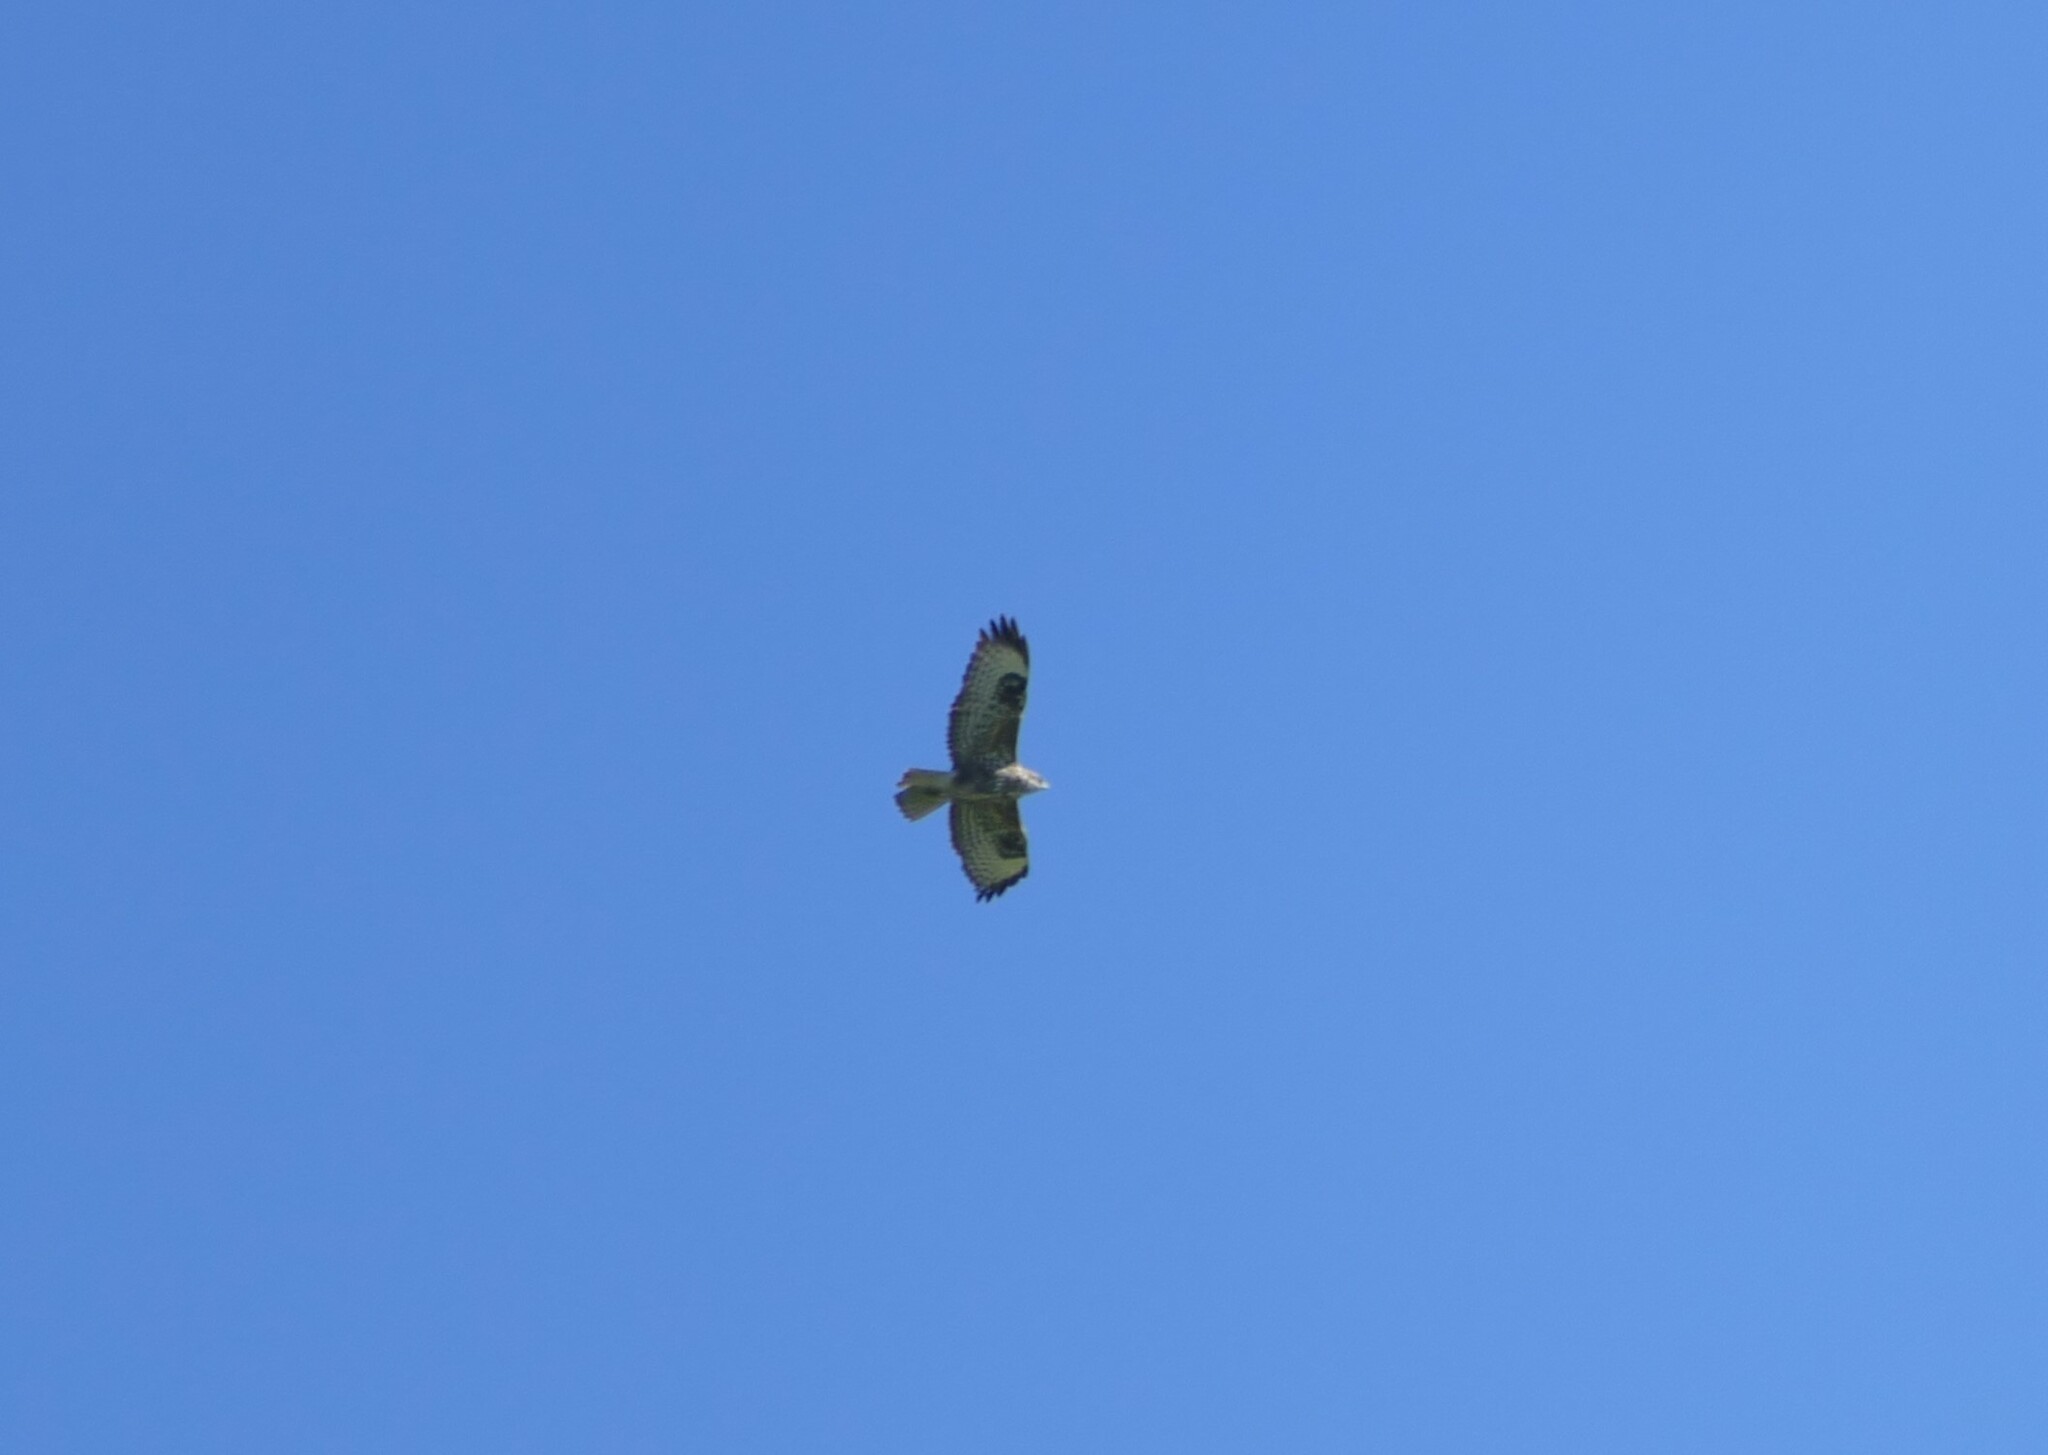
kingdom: Animalia
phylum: Chordata
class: Aves
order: Accipitriformes
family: Accipitridae
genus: Buteo
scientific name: Buteo buteo
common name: Common buzzard
